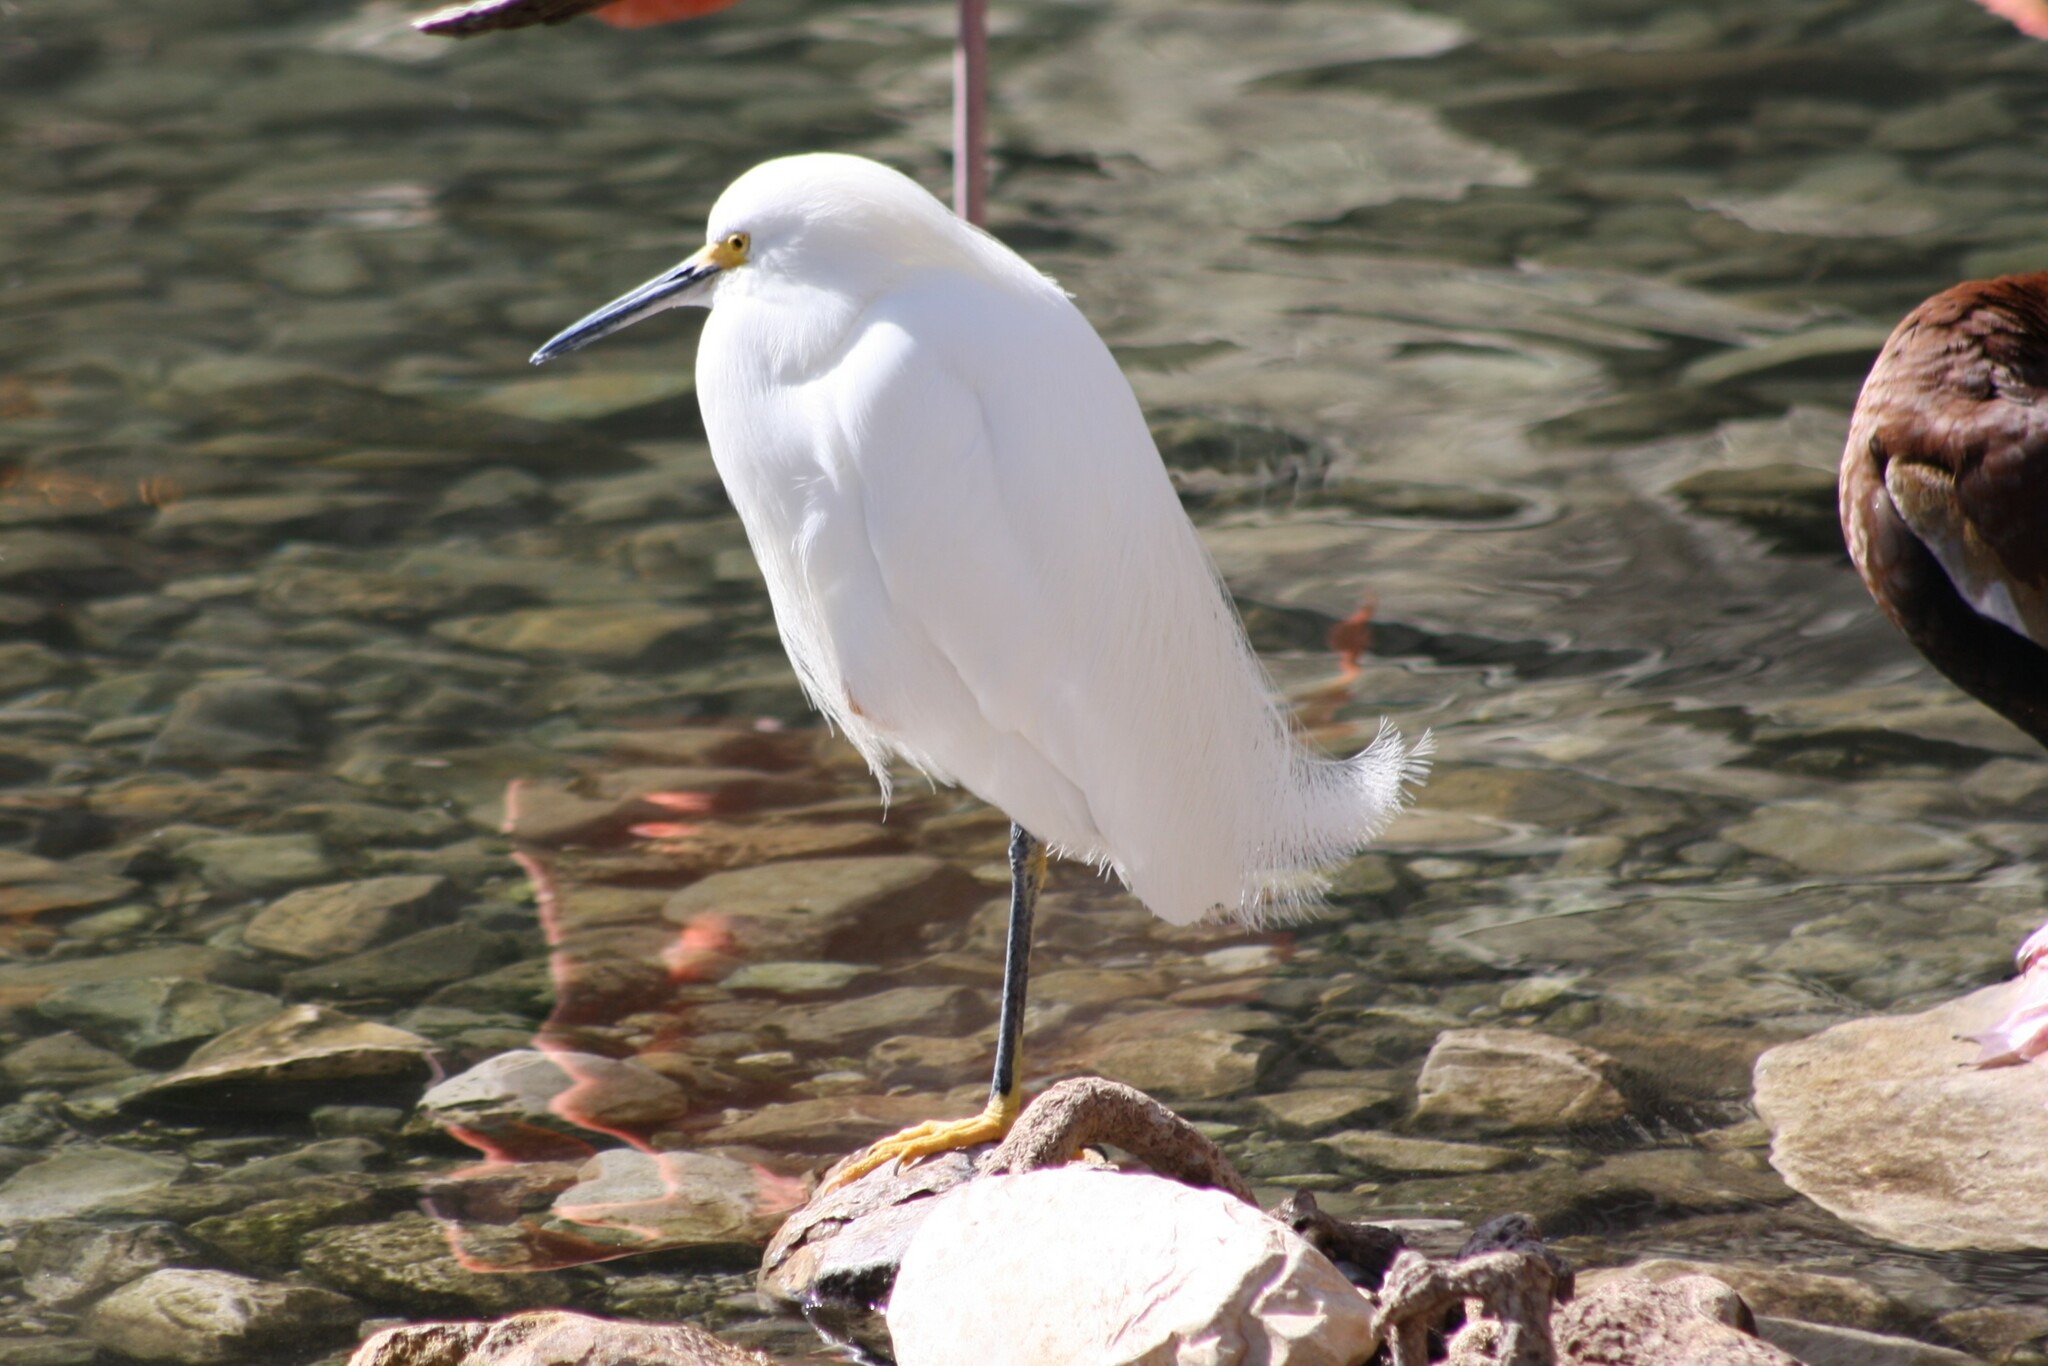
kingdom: Animalia
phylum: Chordata
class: Aves
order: Pelecaniformes
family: Ardeidae
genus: Egretta
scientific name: Egretta thula
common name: Snowy egret
